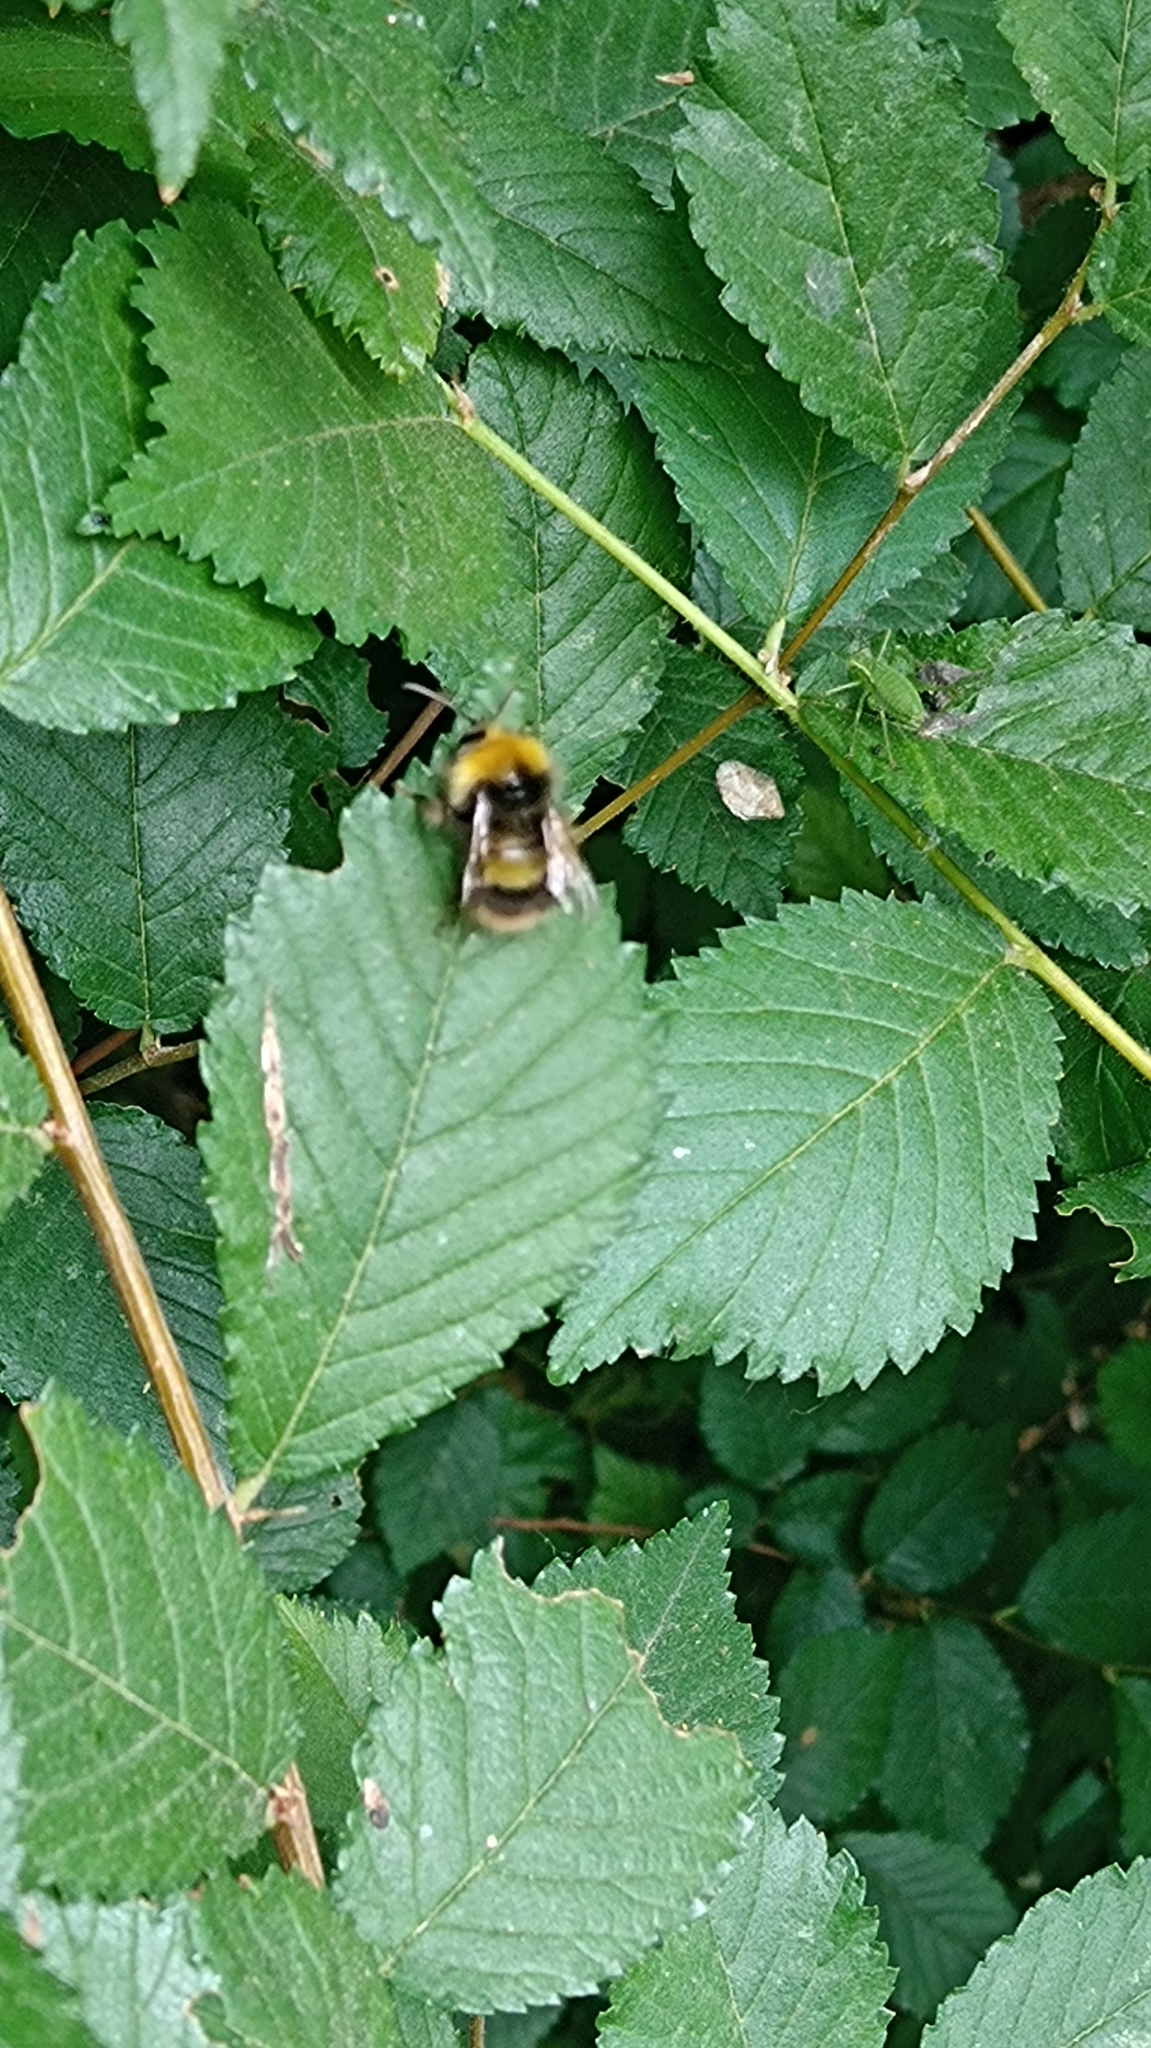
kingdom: Animalia
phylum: Arthropoda
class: Insecta
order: Hymenoptera
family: Apidae
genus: Bombus
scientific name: Bombus pratorum
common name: Early humble-bee
